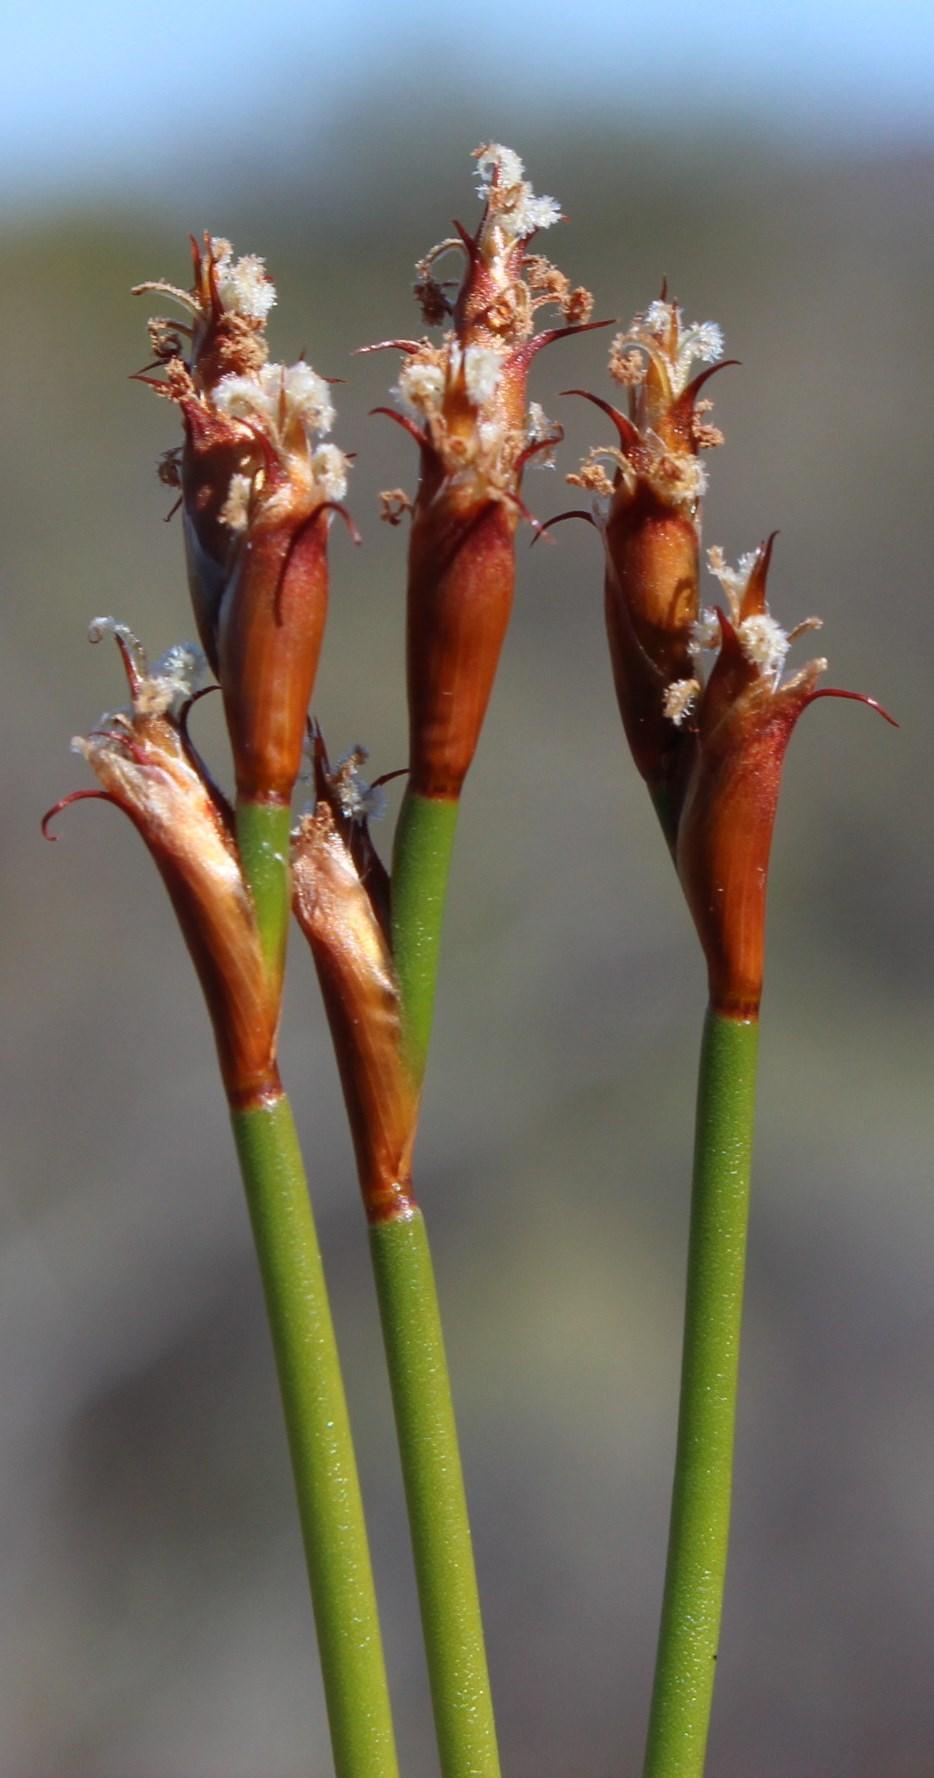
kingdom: Plantae
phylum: Tracheophyta
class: Liliopsida
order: Poales
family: Restionaceae
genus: Restio
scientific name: Restio capensis
